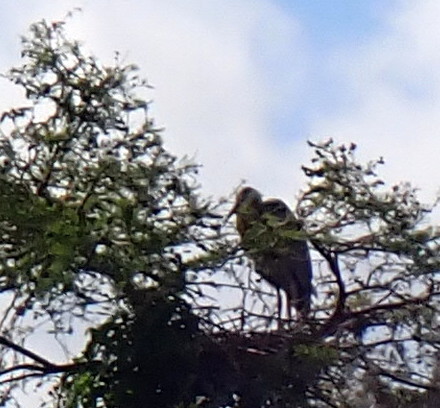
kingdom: Animalia
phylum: Chordata
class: Aves
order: Pelecaniformes
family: Ardeidae
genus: Ardea
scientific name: Ardea herodias
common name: Great blue heron
